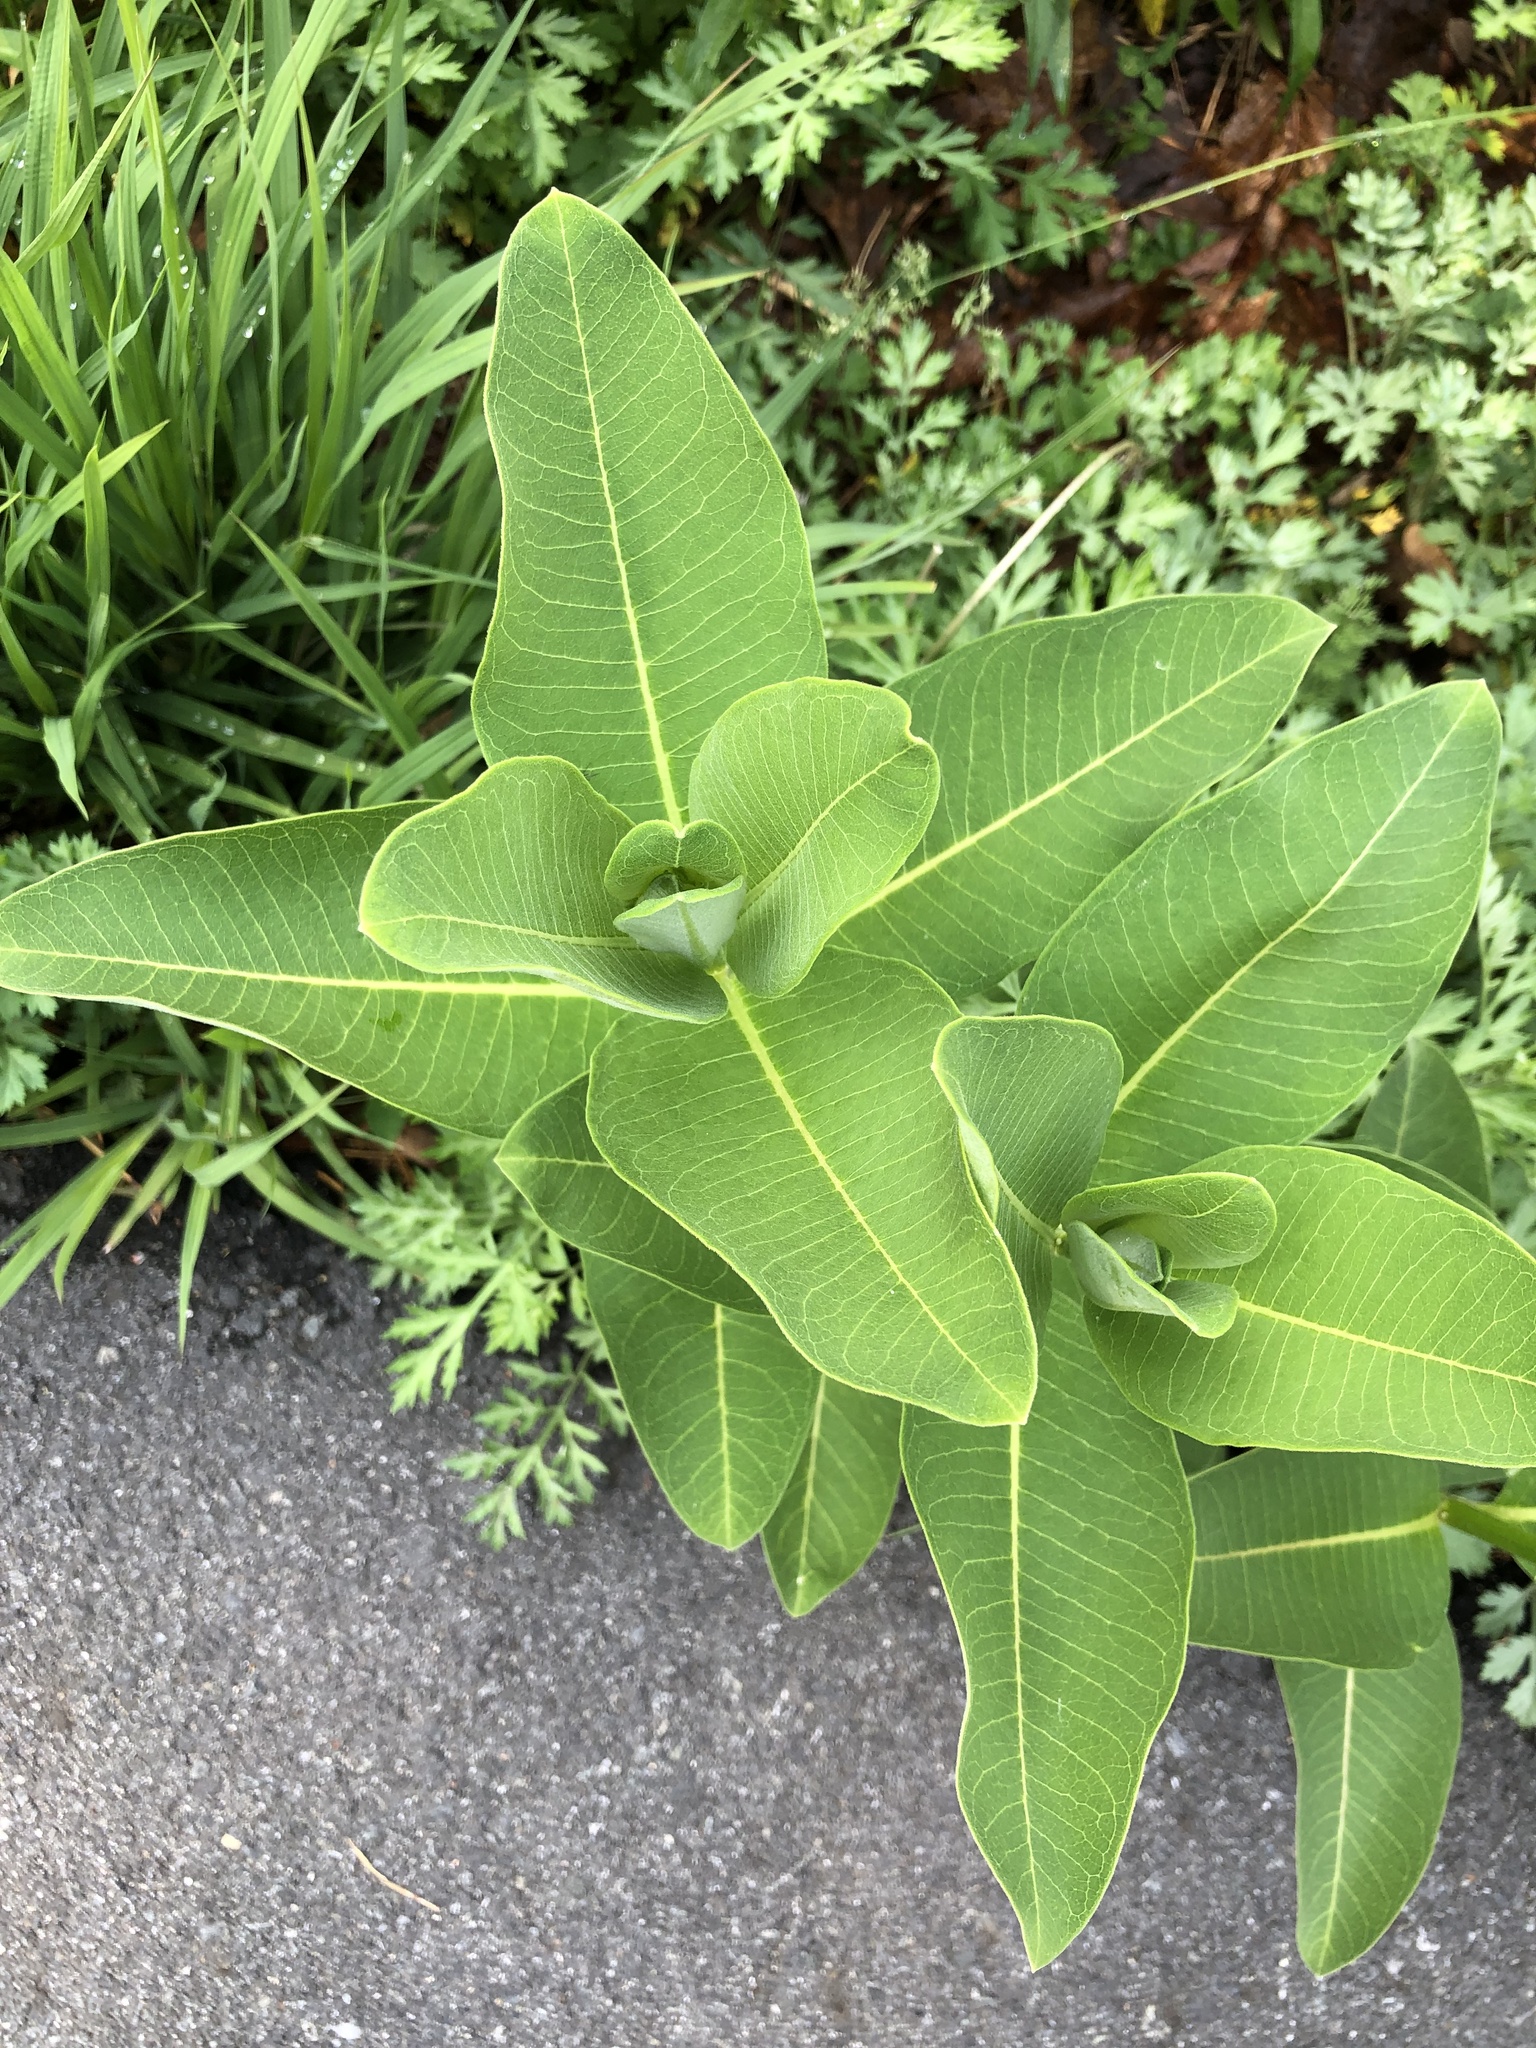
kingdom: Plantae
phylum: Tracheophyta
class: Magnoliopsida
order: Gentianales
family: Apocynaceae
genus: Asclepias
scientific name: Asclepias syriaca
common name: Common milkweed
